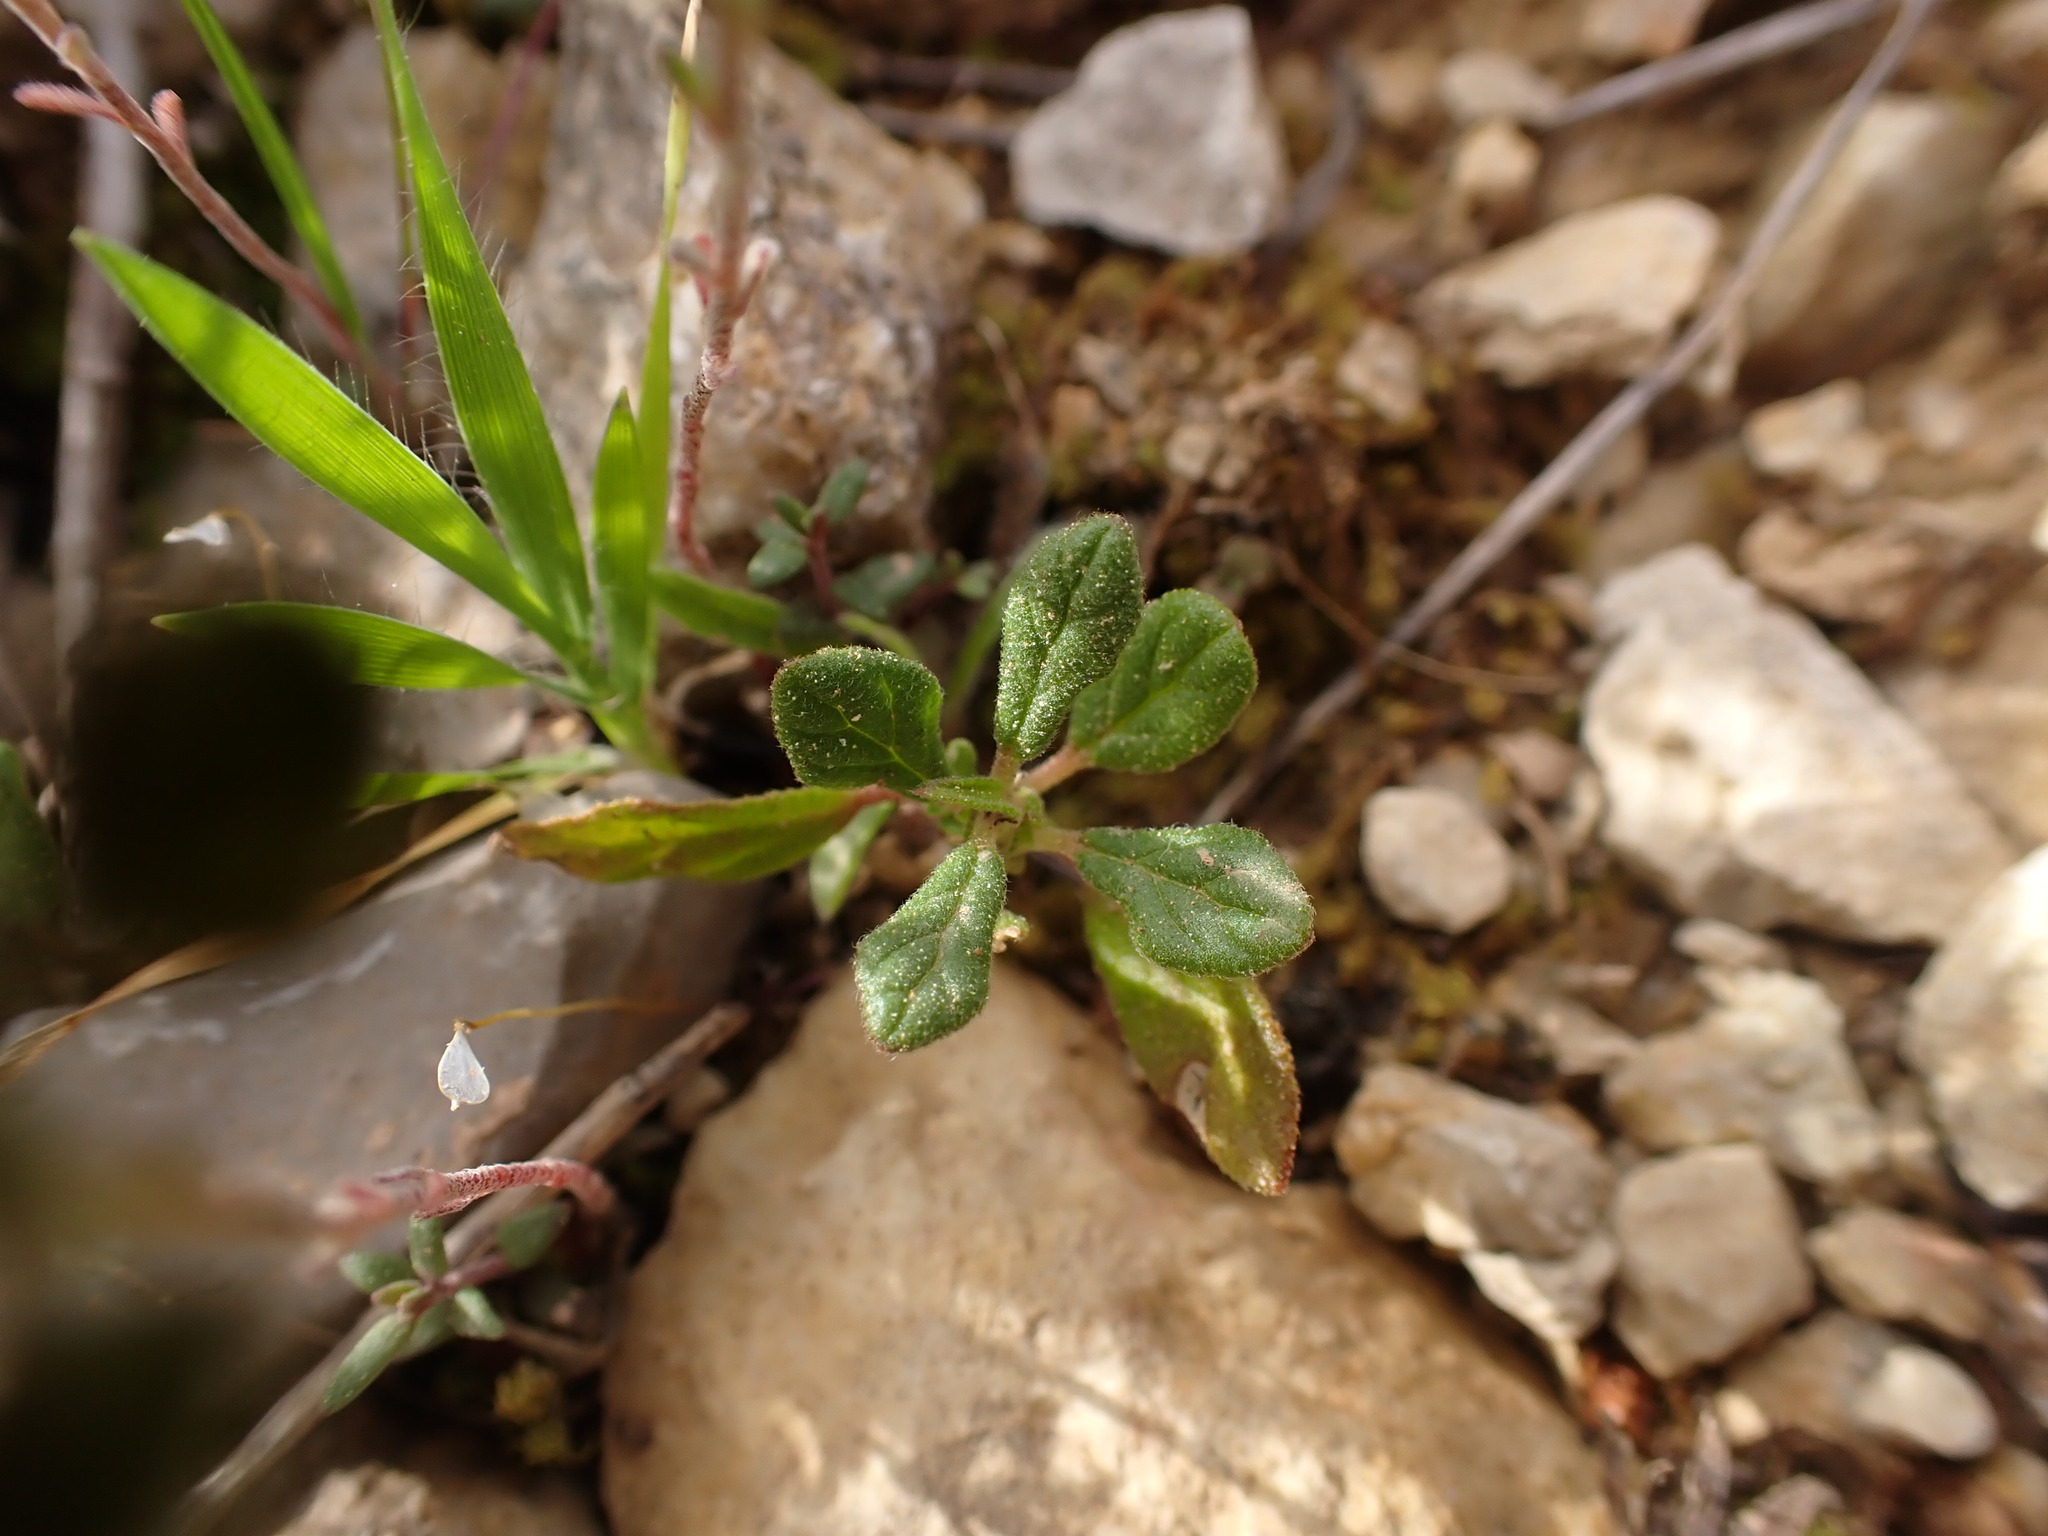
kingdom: Plantae
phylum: Tracheophyta
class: Magnoliopsida
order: Malvales
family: Cistaceae
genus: Helianthemum
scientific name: Helianthemum salicifolium
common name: Willowleaf frostweed
